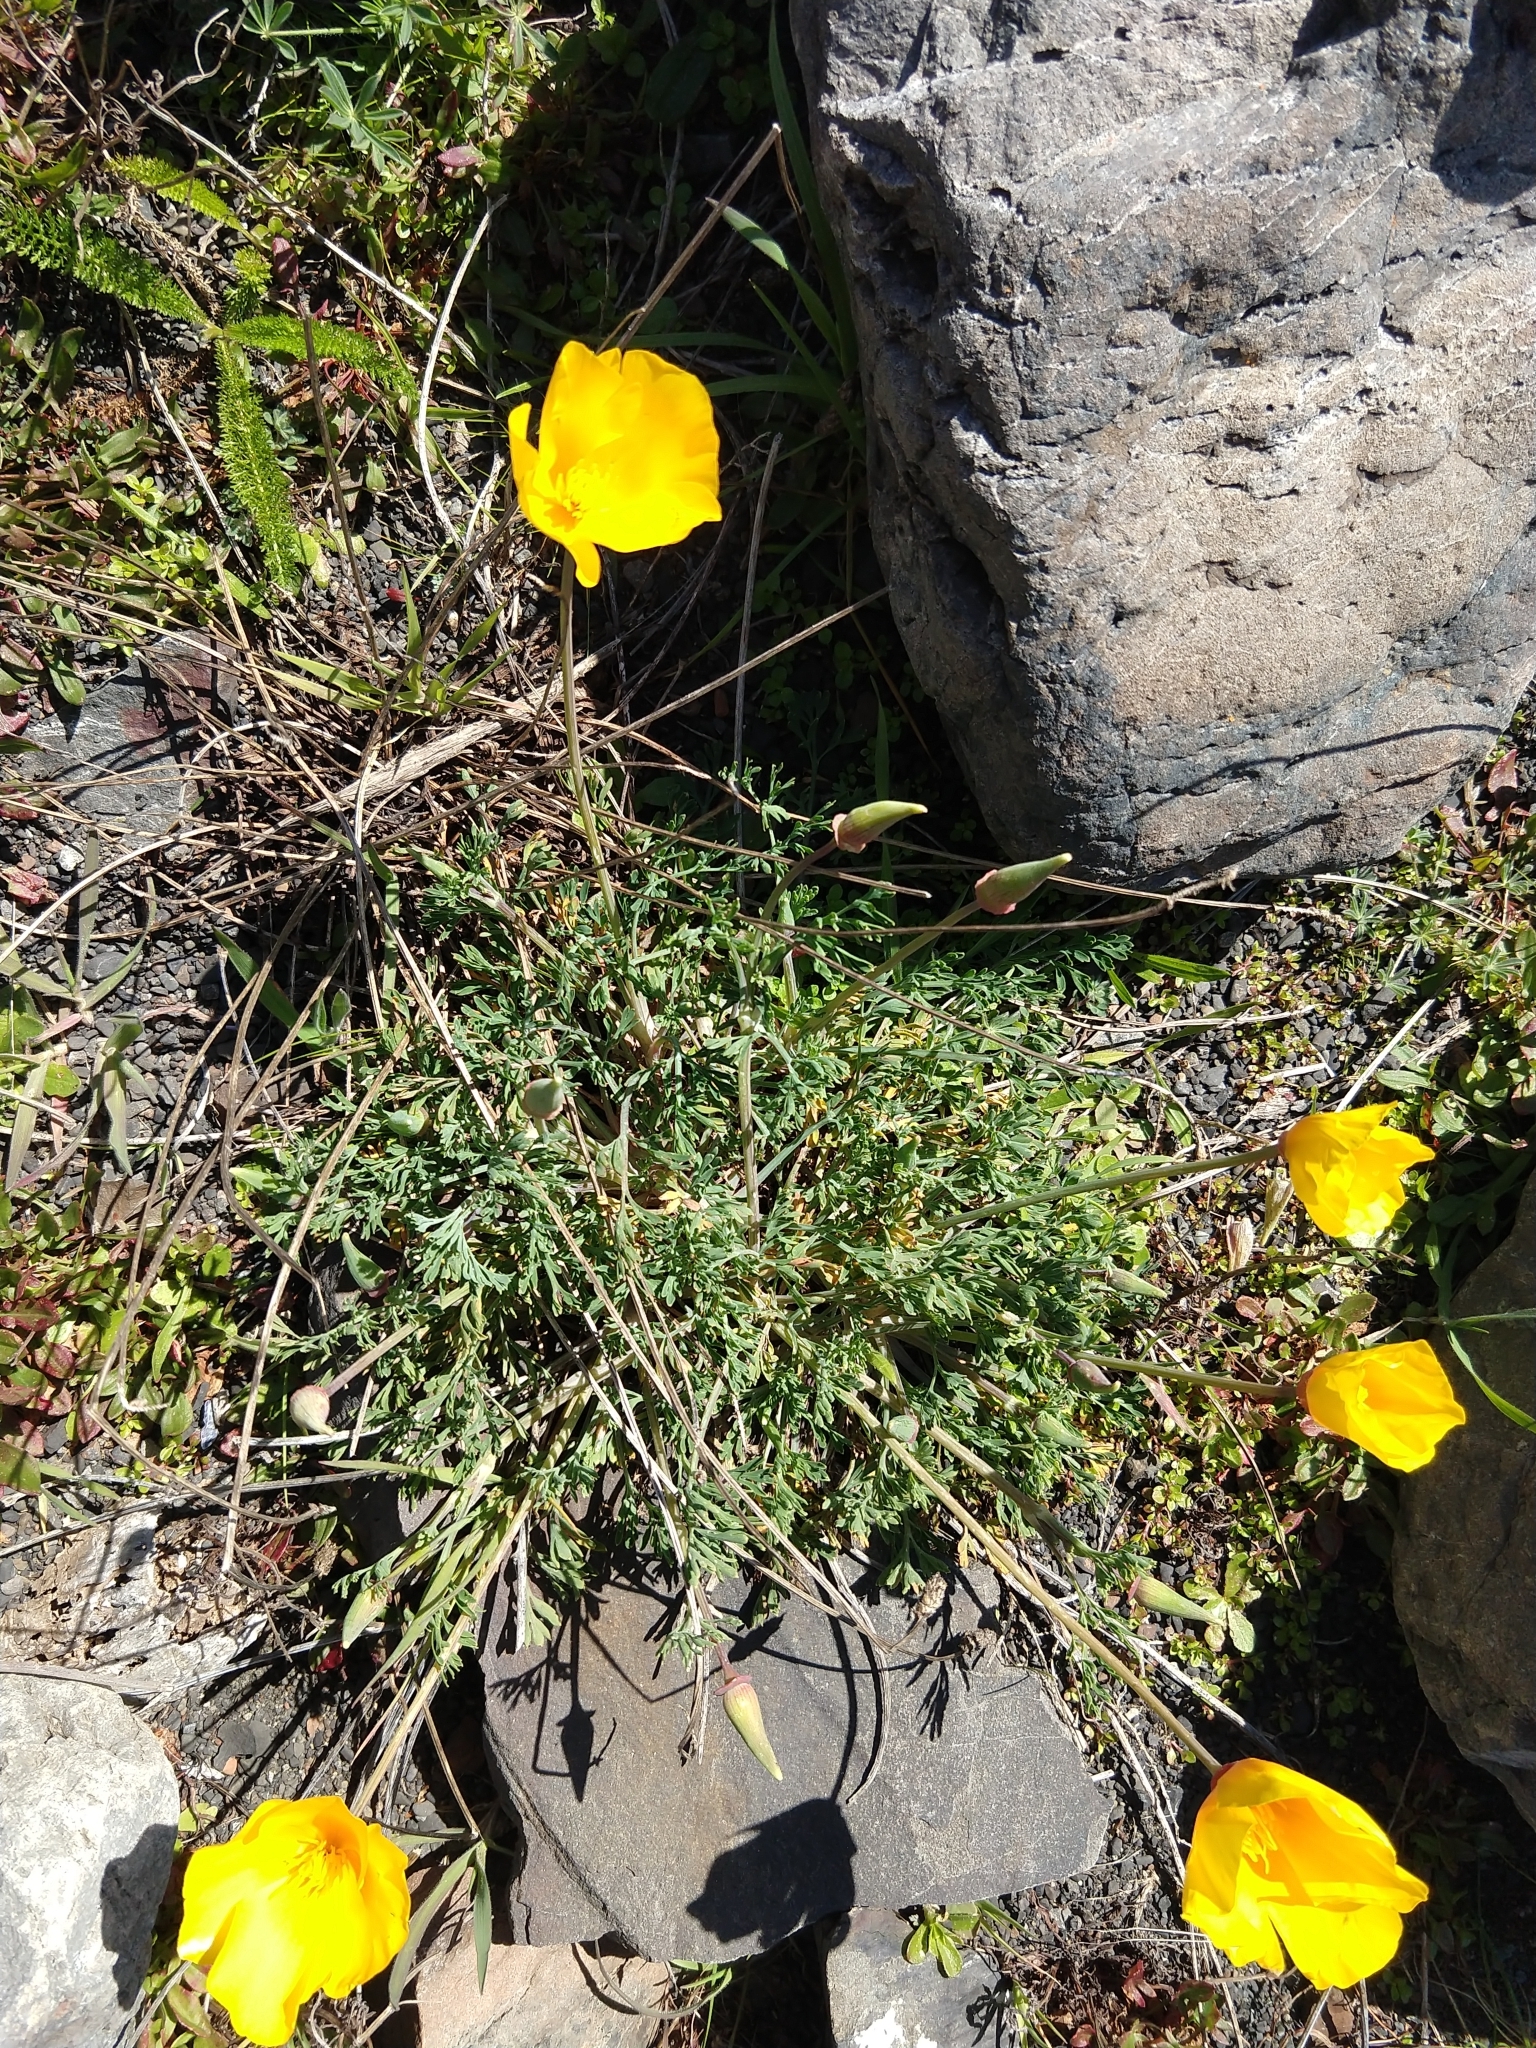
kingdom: Plantae
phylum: Tracheophyta
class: Magnoliopsida
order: Ranunculales
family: Papaveraceae
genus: Eschscholzia
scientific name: Eschscholzia californica
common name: California poppy
